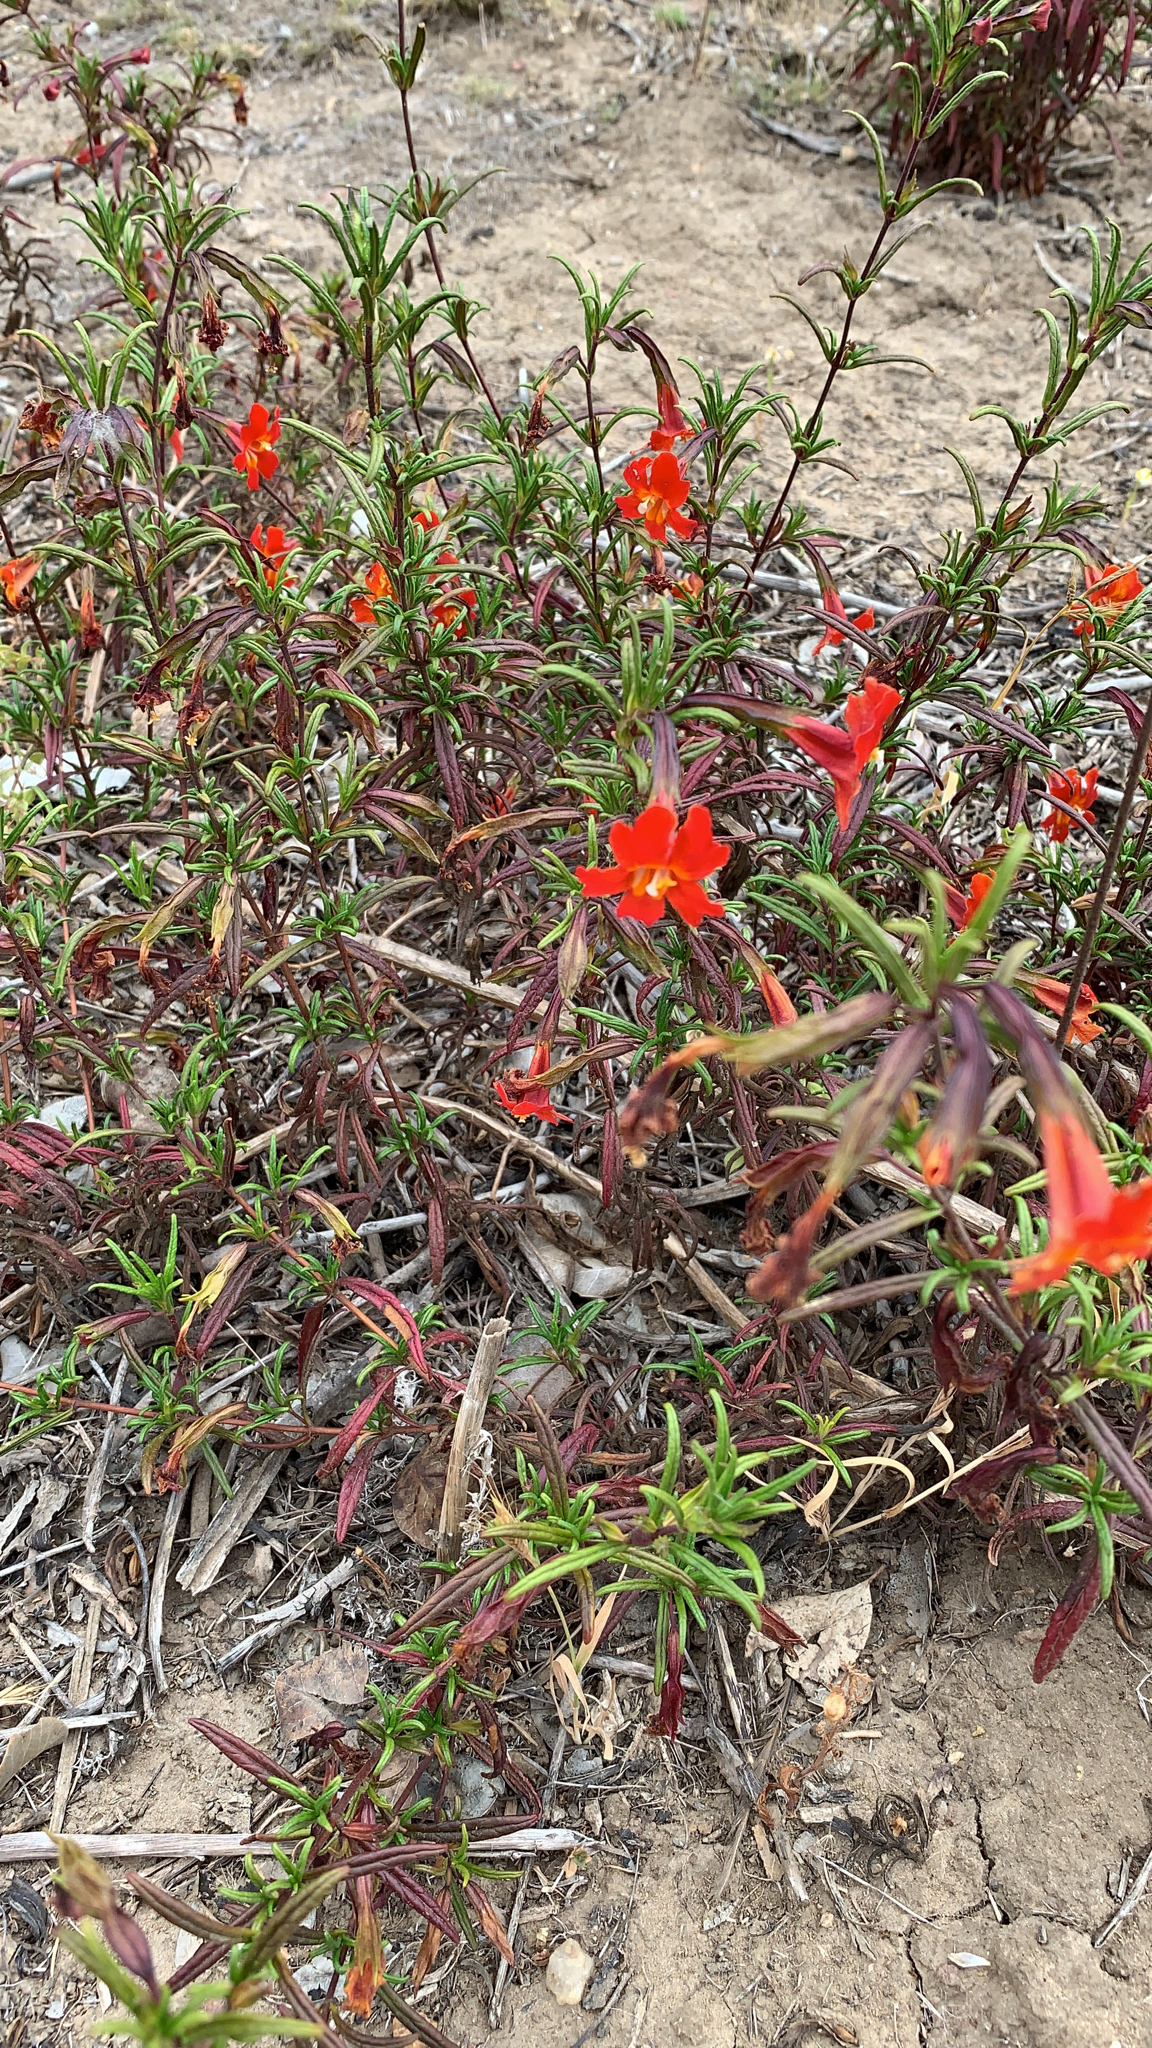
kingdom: Plantae
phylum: Tracheophyta
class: Magnoliopsida
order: Lamiales
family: Phrymaceae
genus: Diplacus
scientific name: Diplacus puniceus
